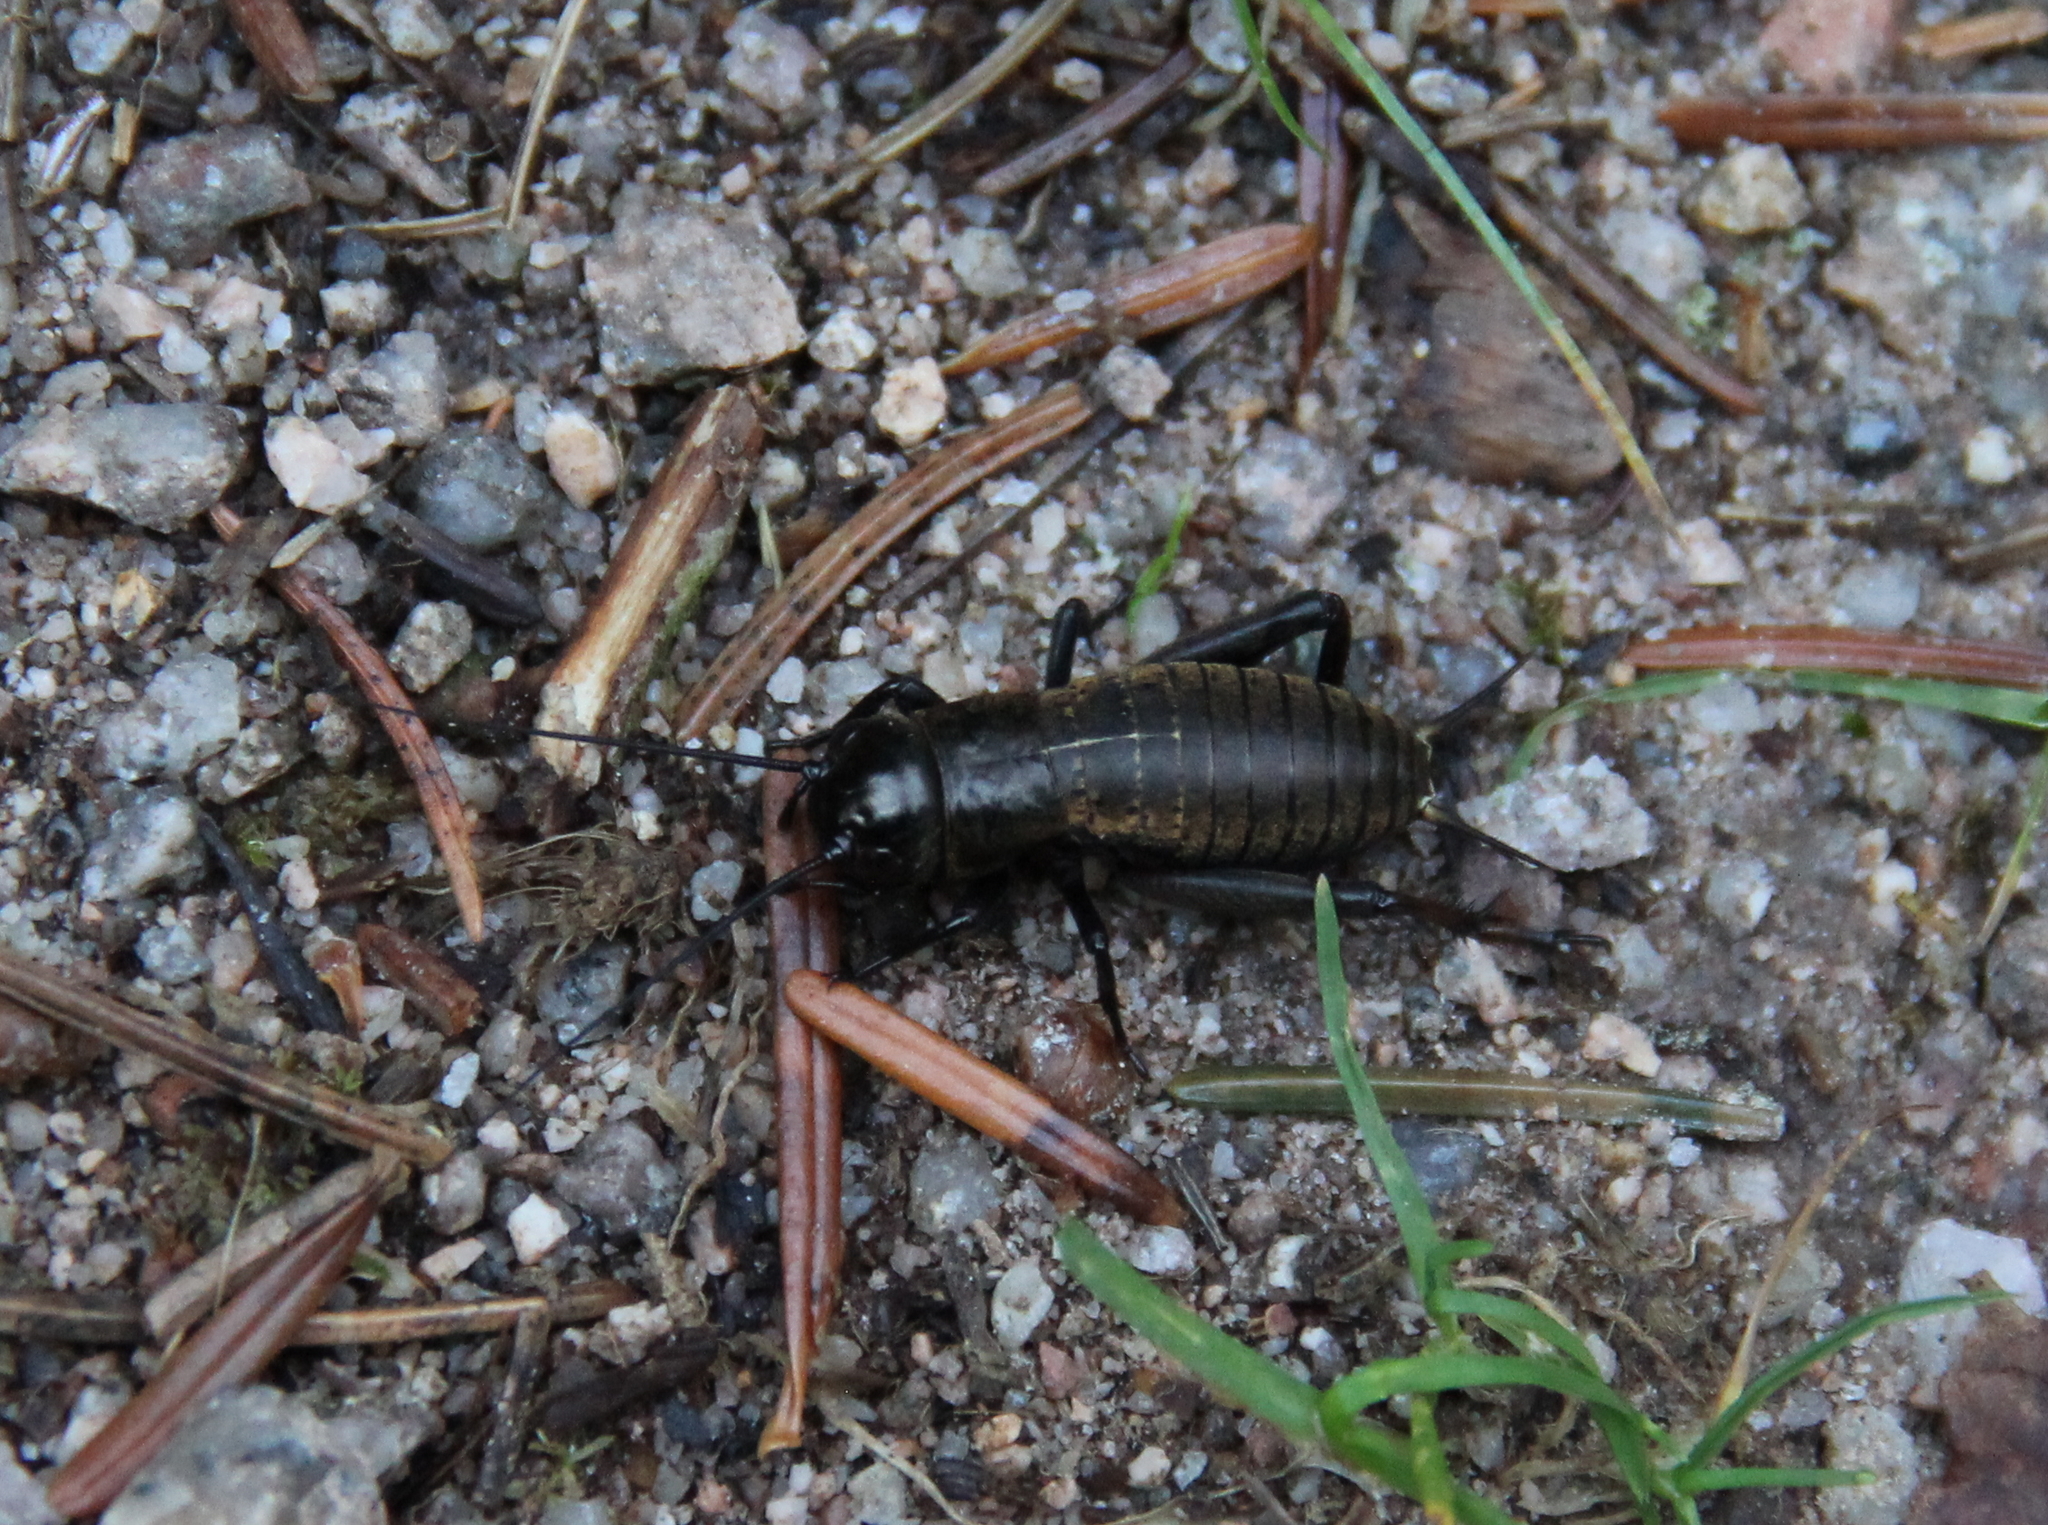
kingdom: Animalia
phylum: Arthropoda
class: Insecta
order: Orthoptera
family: Gryllidae
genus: Gryllus
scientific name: Gryllus campestris
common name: Field cricket
